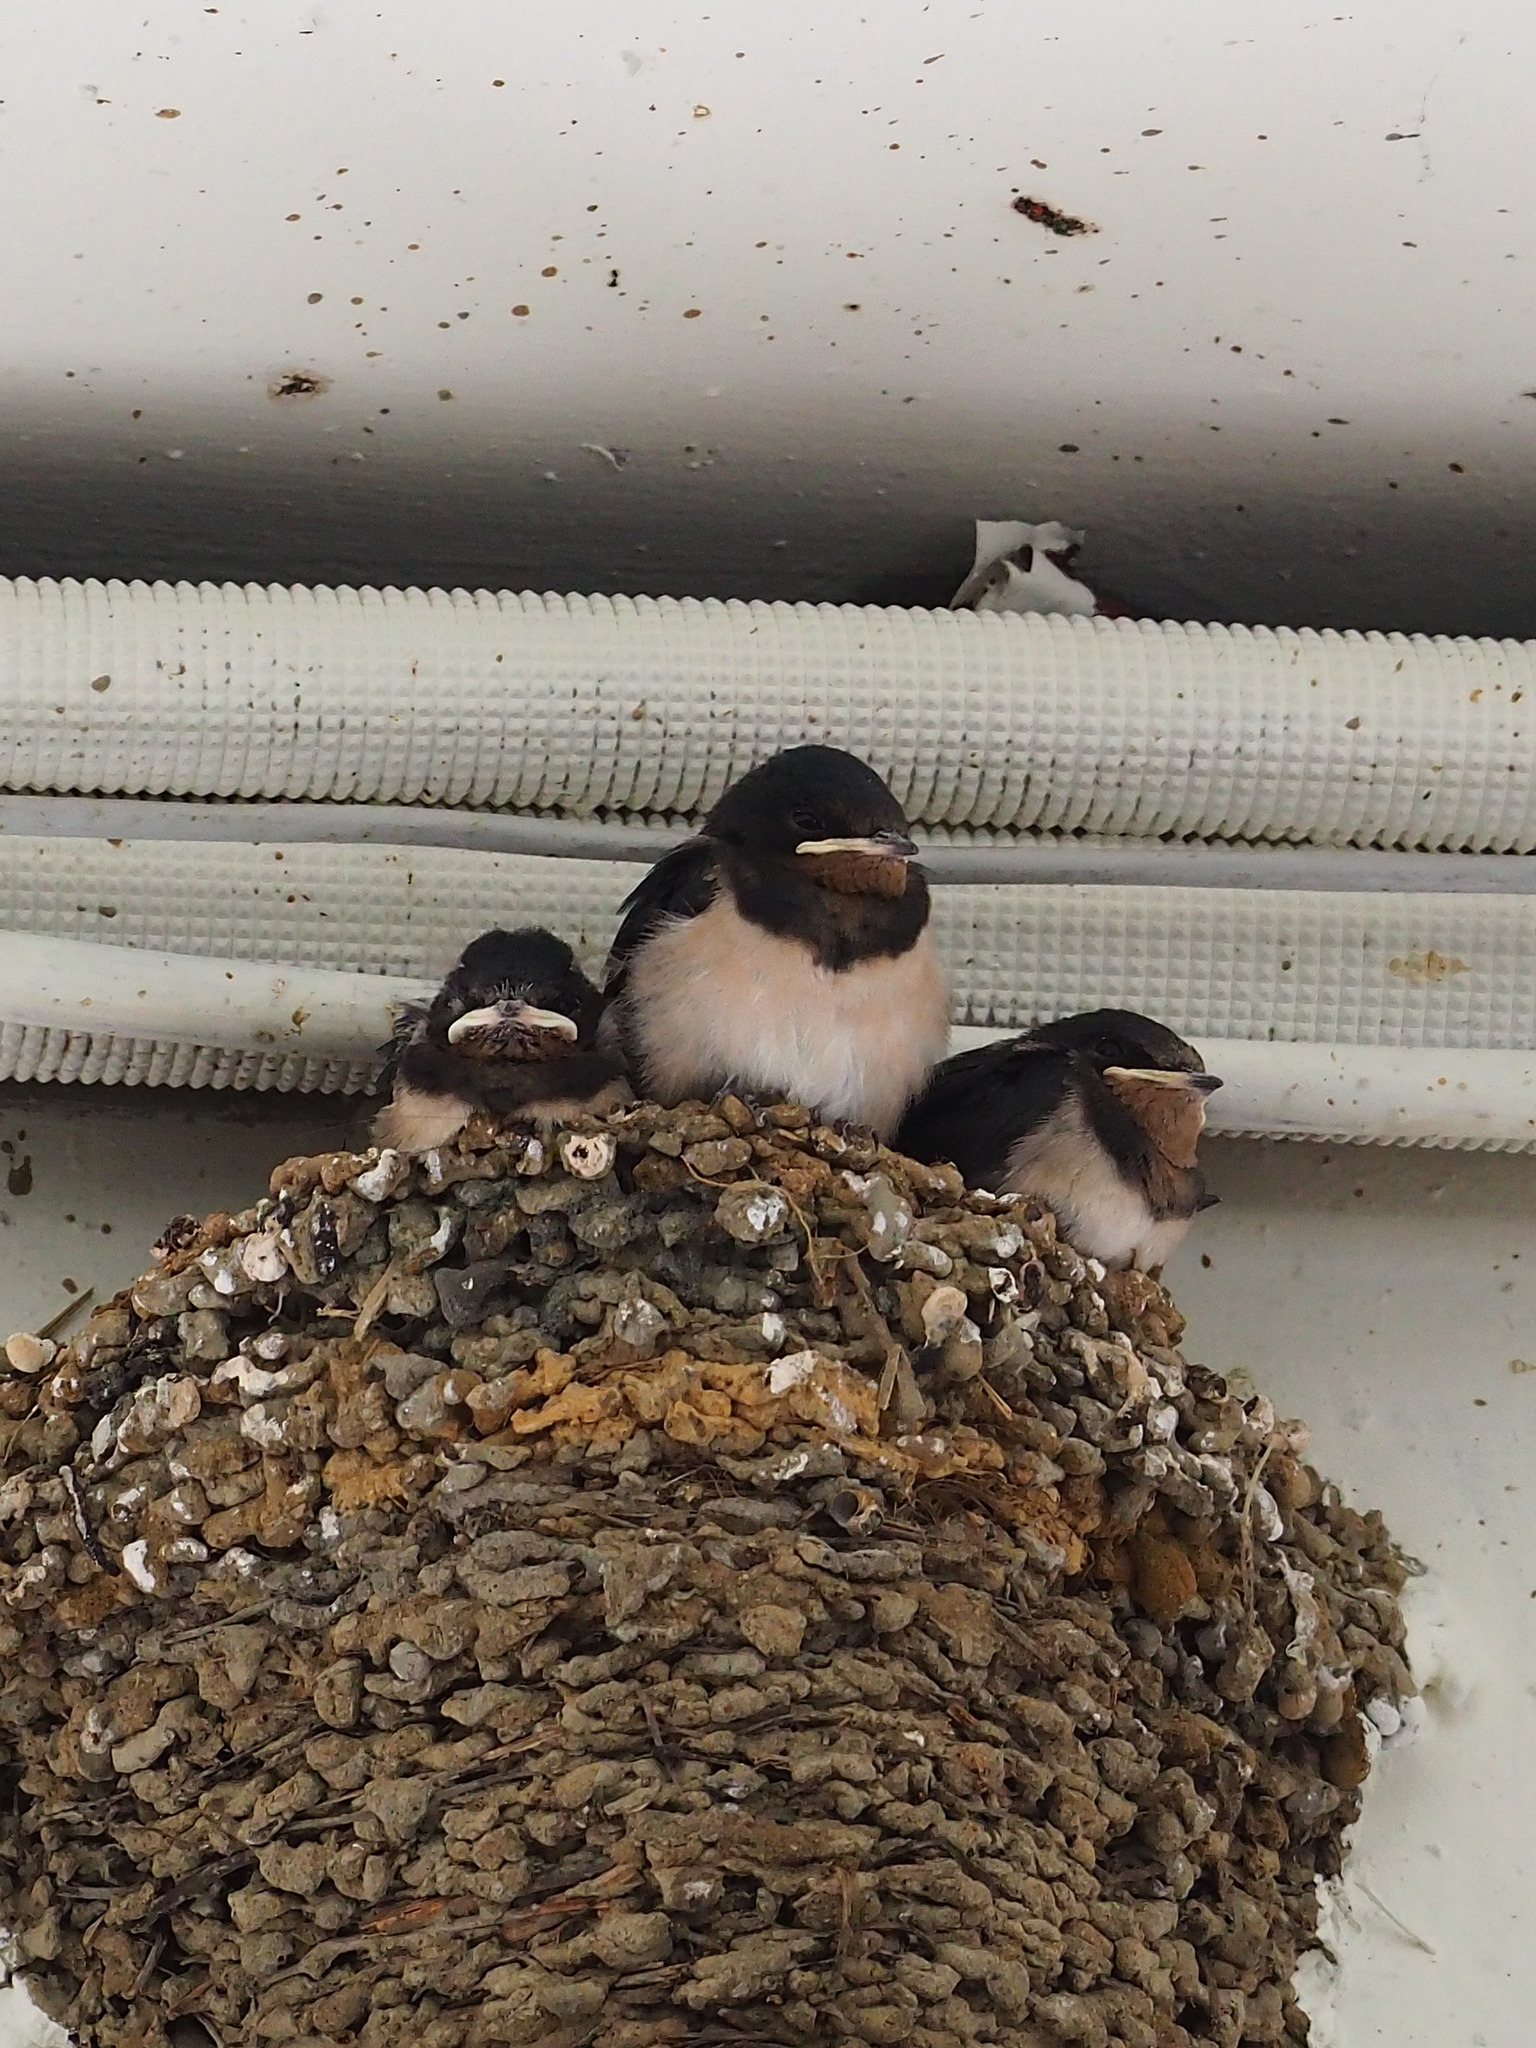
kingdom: Animalia
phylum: Chordata
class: Aves
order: Passeriformes
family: Hirundinidae
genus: Hirundo
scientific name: Hirundo rustica
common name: Barn swallow
